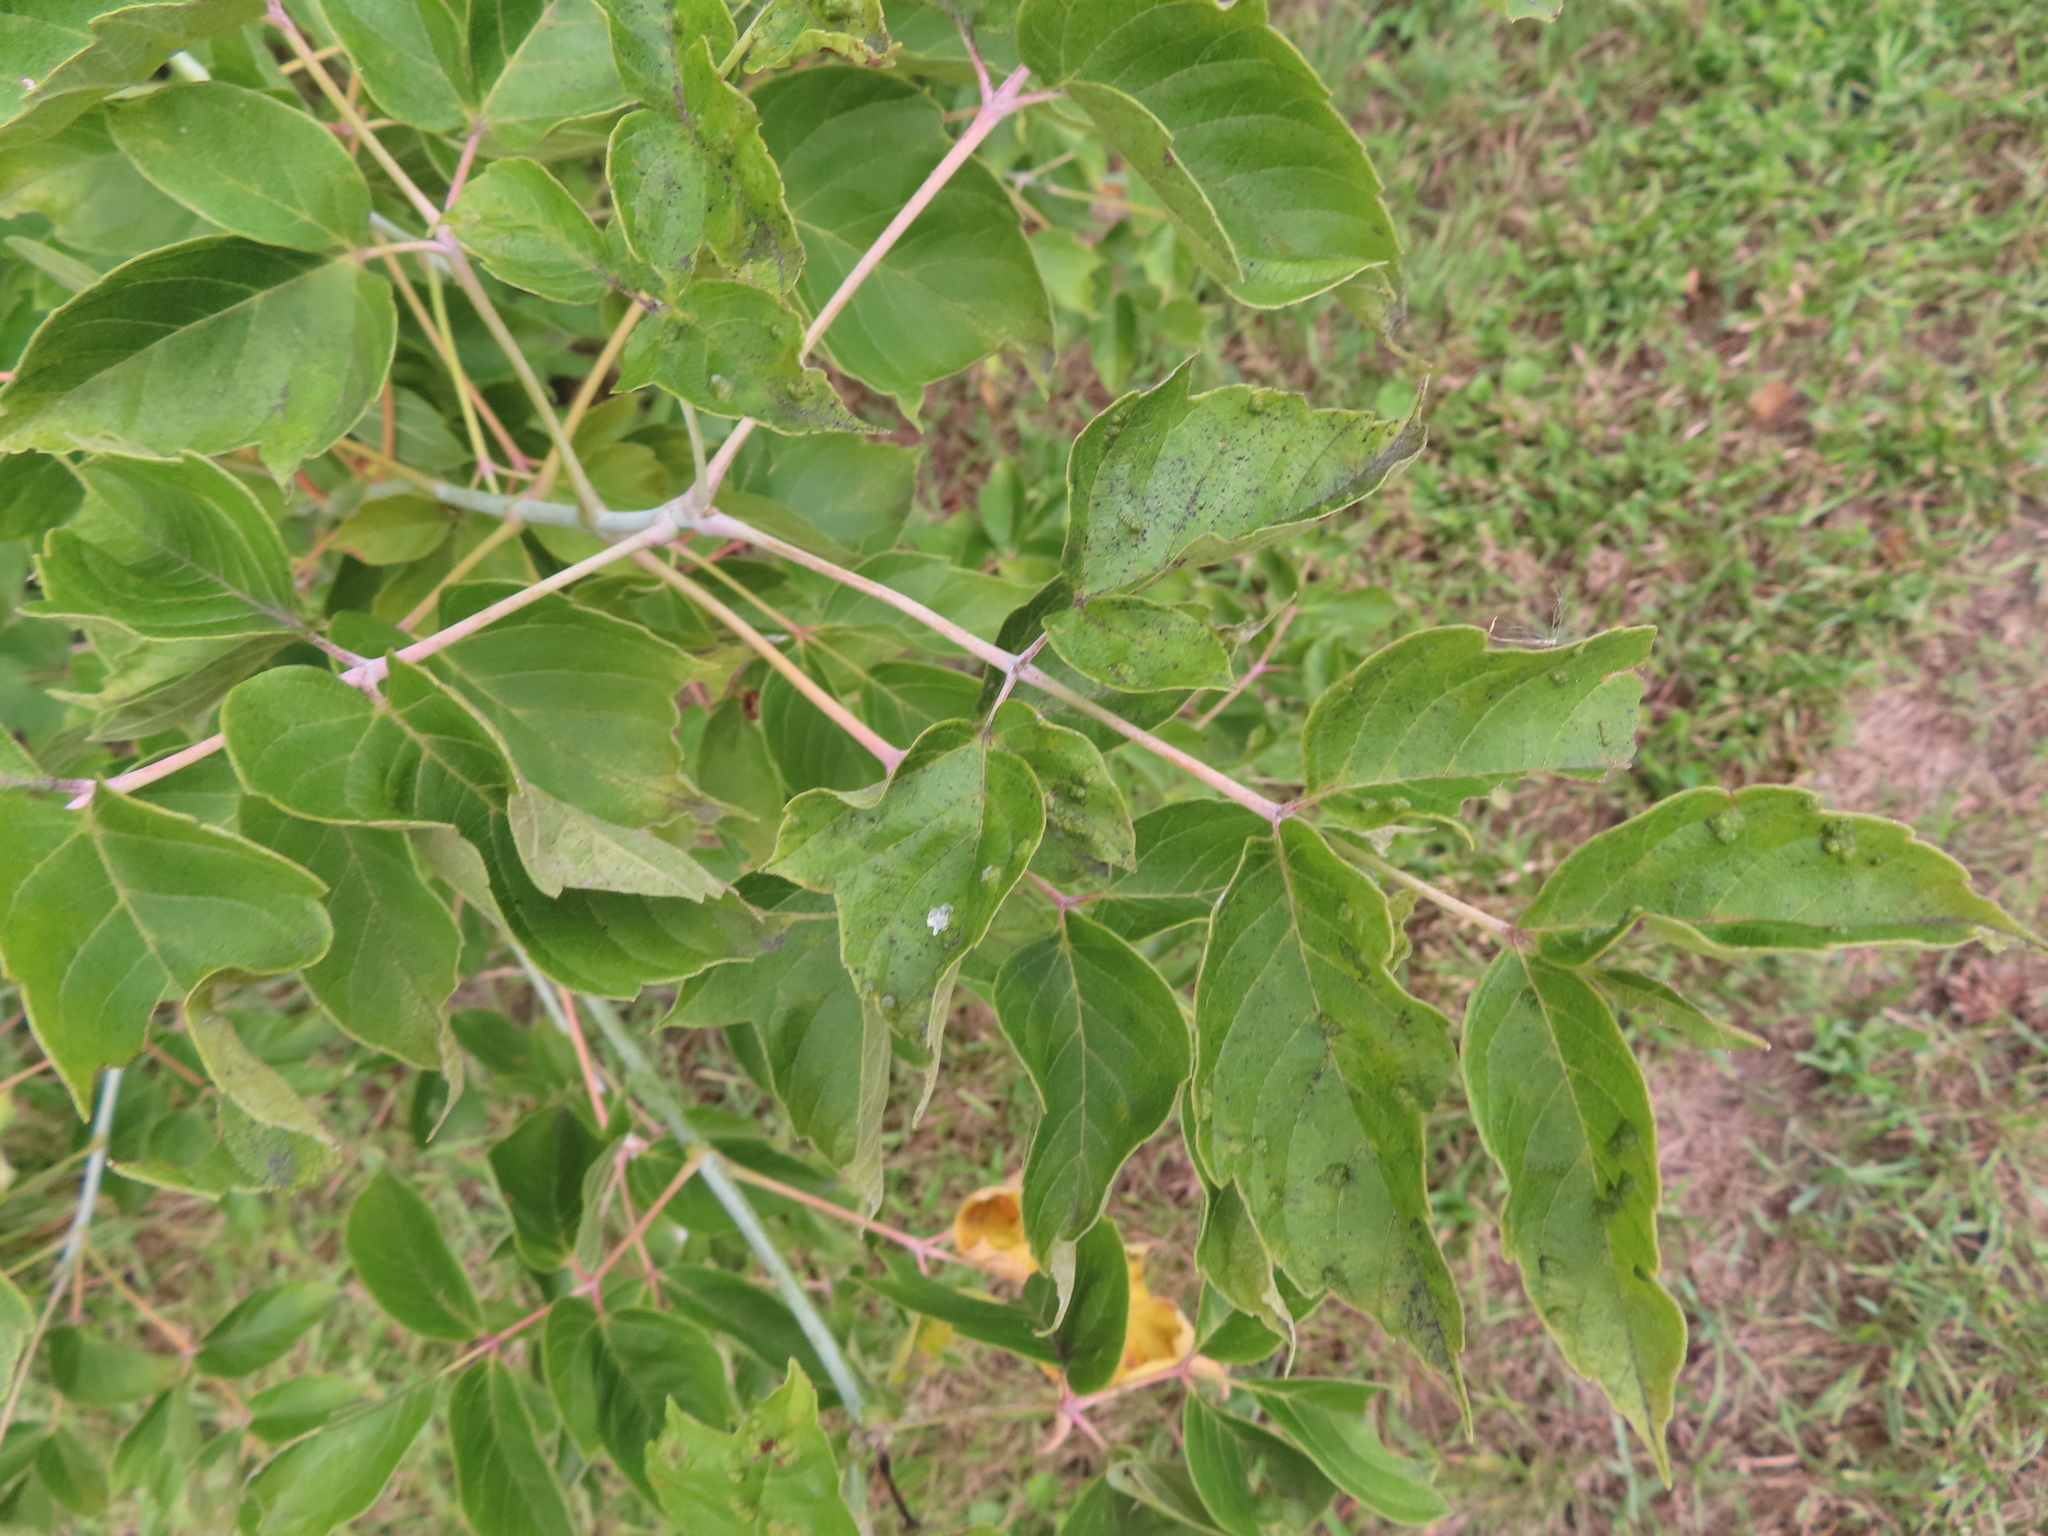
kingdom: Plantae
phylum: Tracheophyta
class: Magnoliopsida
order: Sapindales
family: Sapindaceae
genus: Acer
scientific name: Acer negundo
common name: Ashleaf maple
